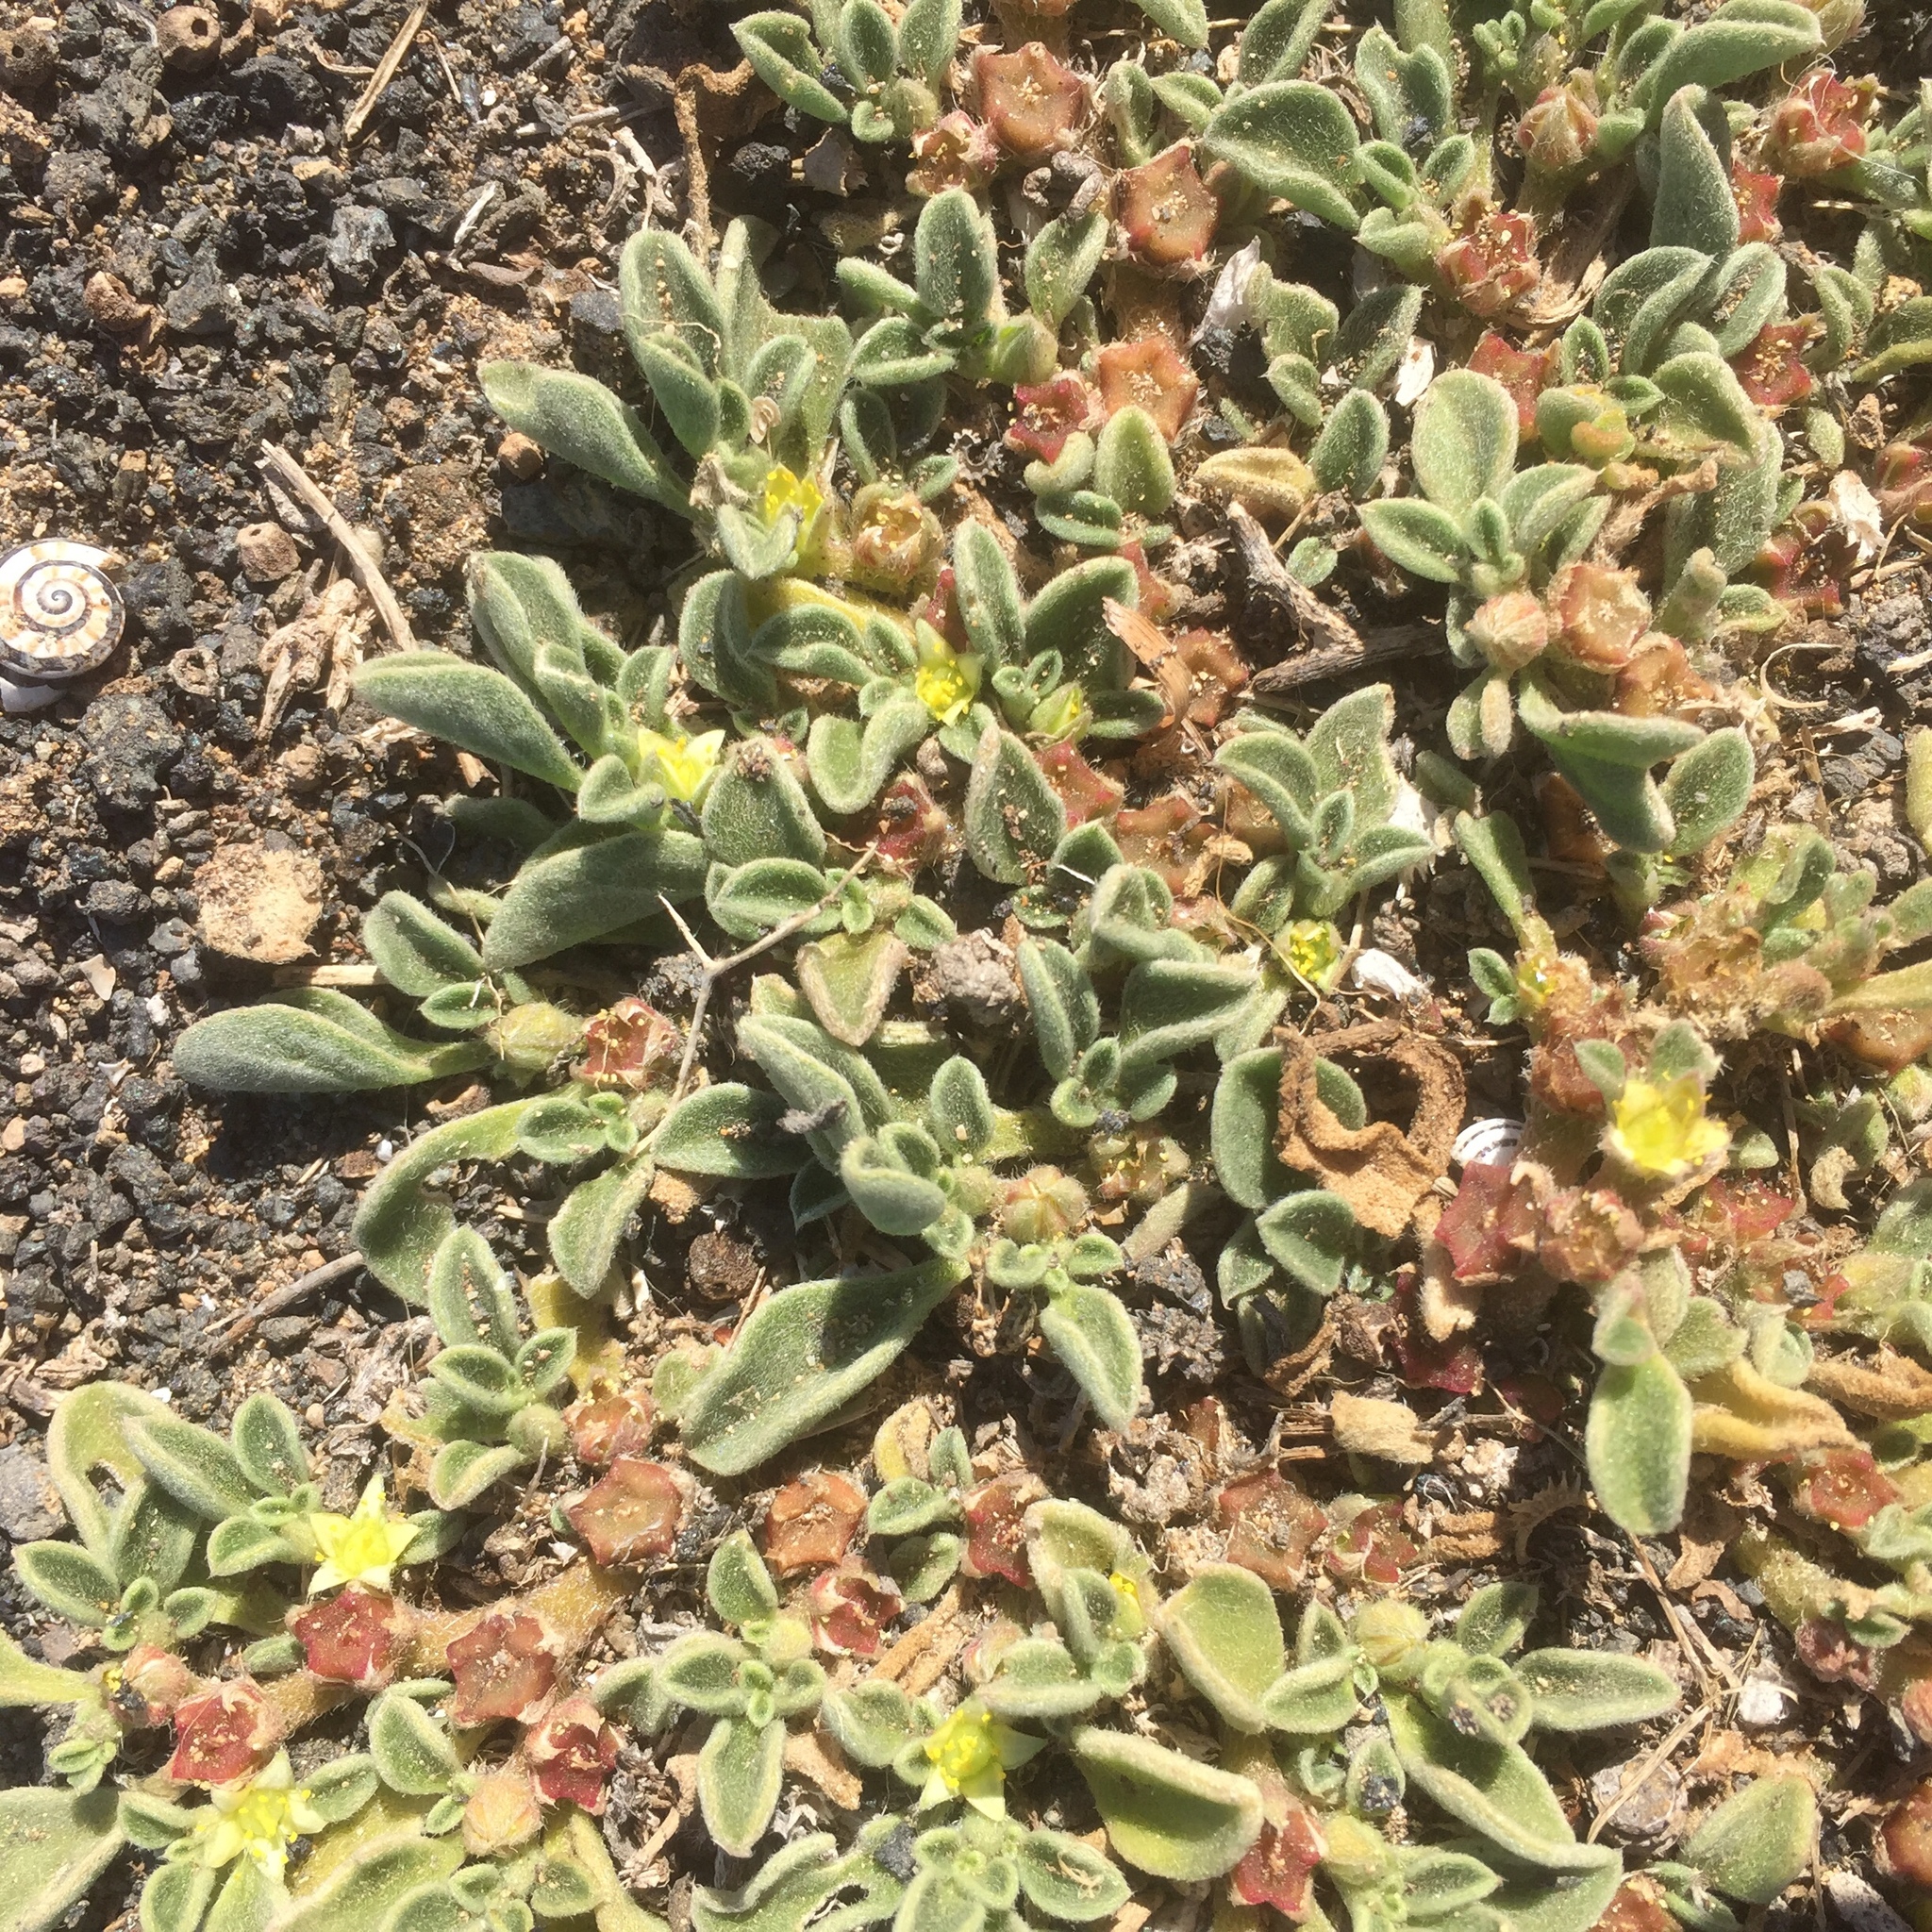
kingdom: Plantae
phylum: Tracheophyta
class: Magnoliopsida
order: Caryophyllales
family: Aizoaceae
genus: Aizoon
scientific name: Aizoon canariense
